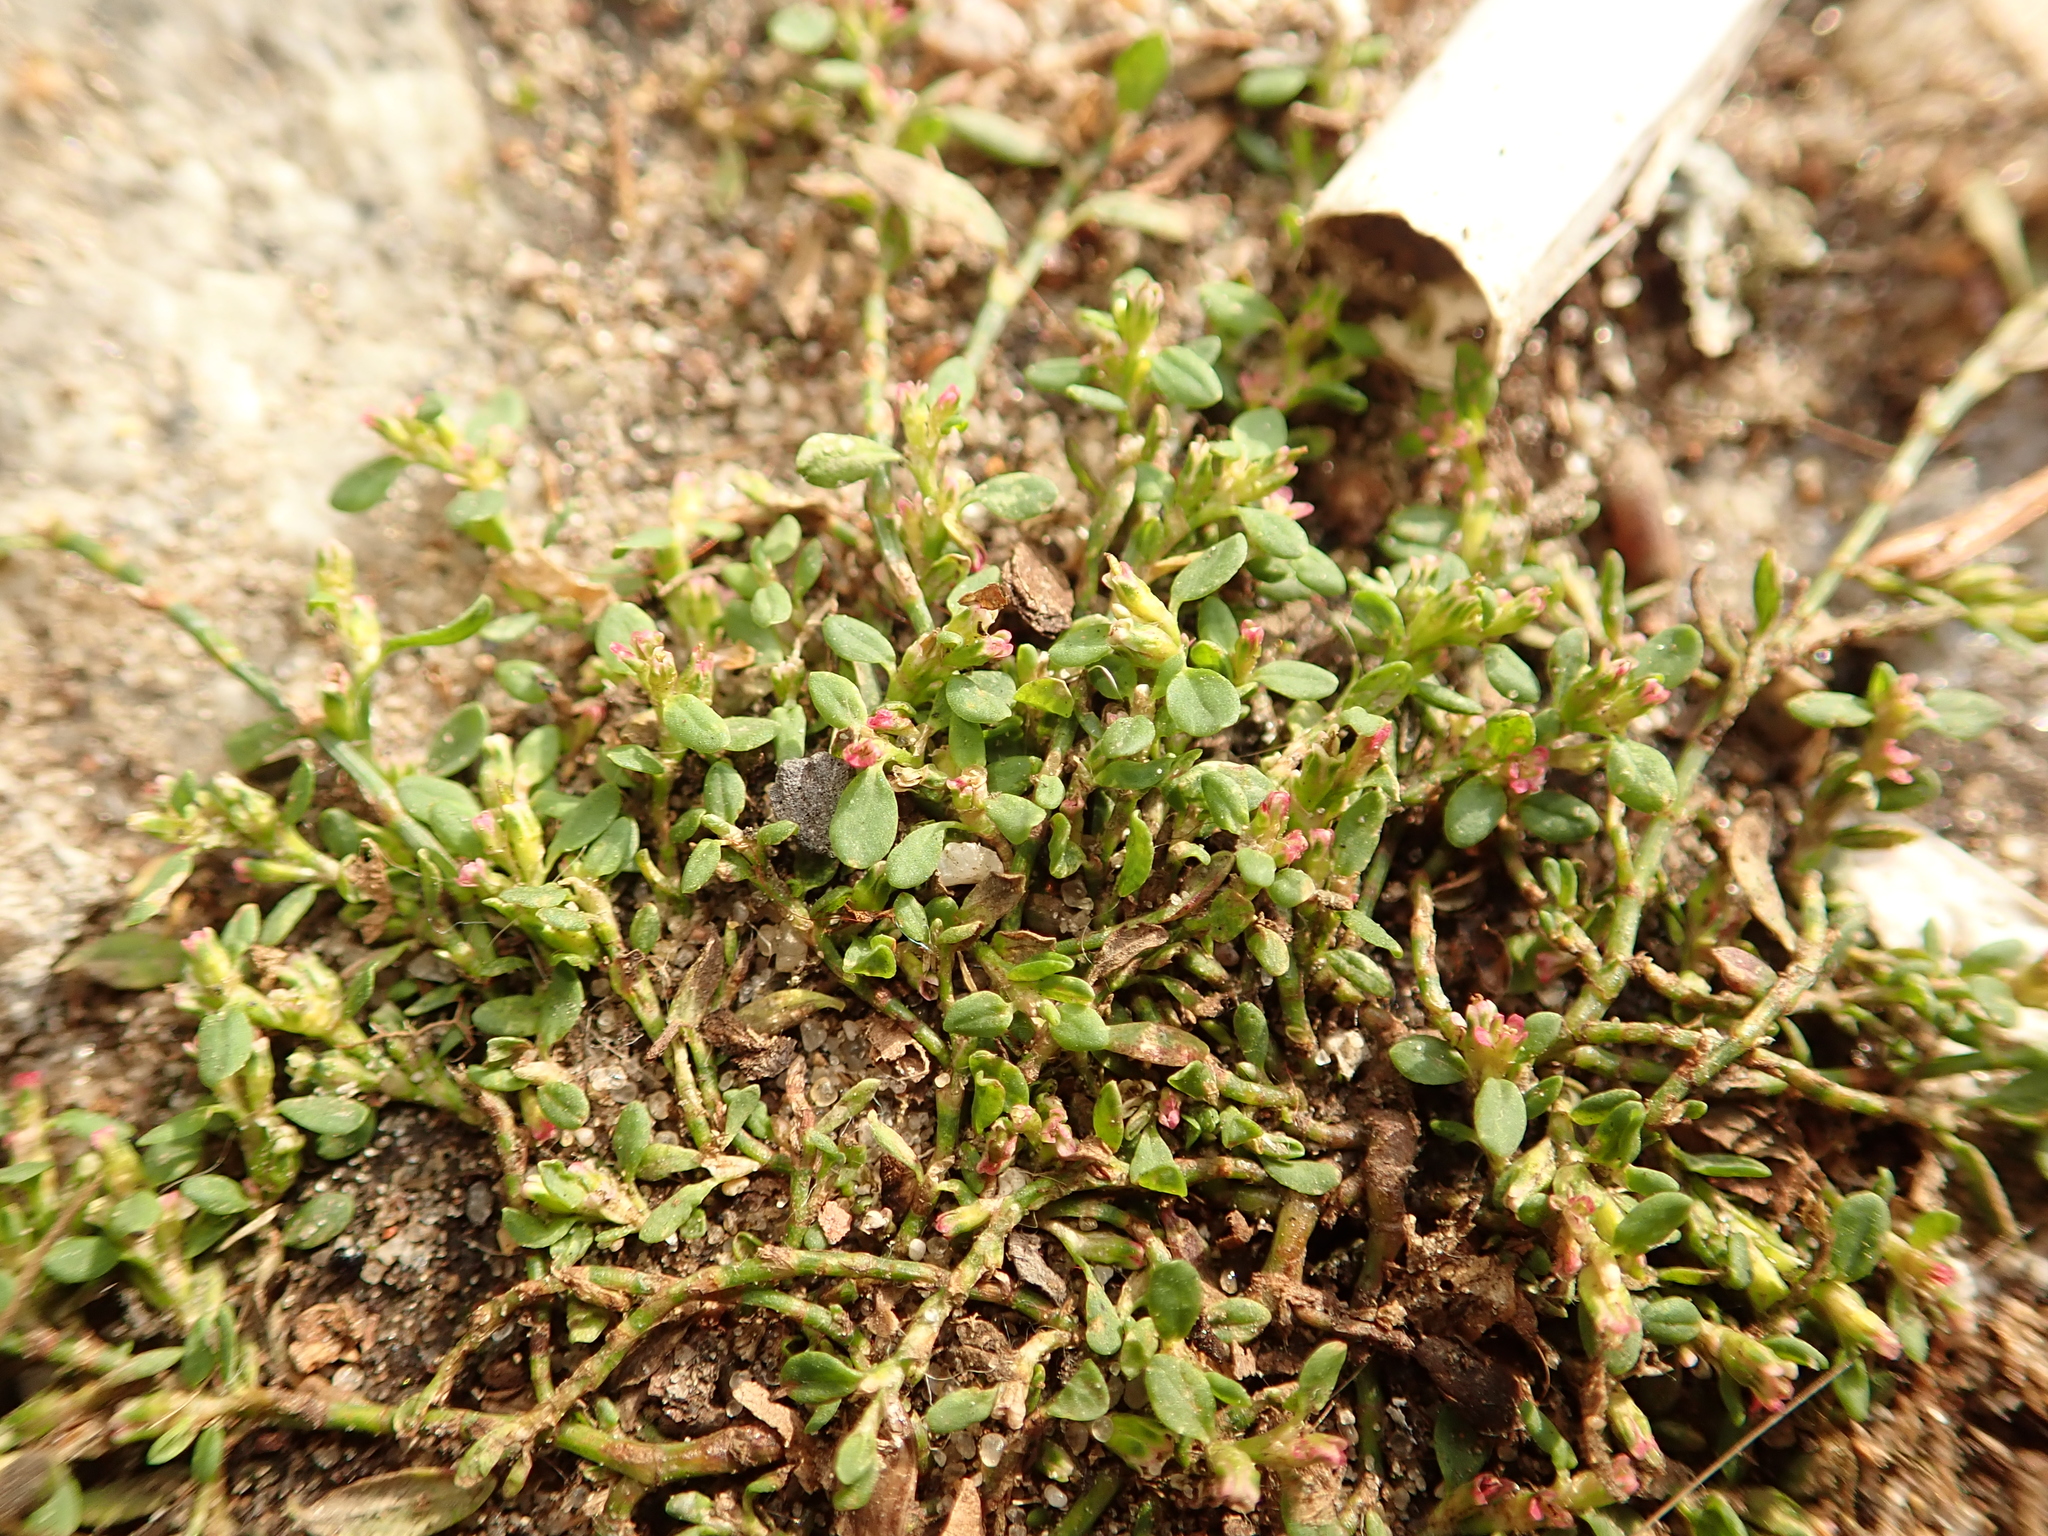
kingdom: Plantae
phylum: Tracheophyta
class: Magnoliopsida
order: Caryophyllales
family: Polygonaceae
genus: Polygonum
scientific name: Polygonum aviculare
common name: Prostrate knotweed
